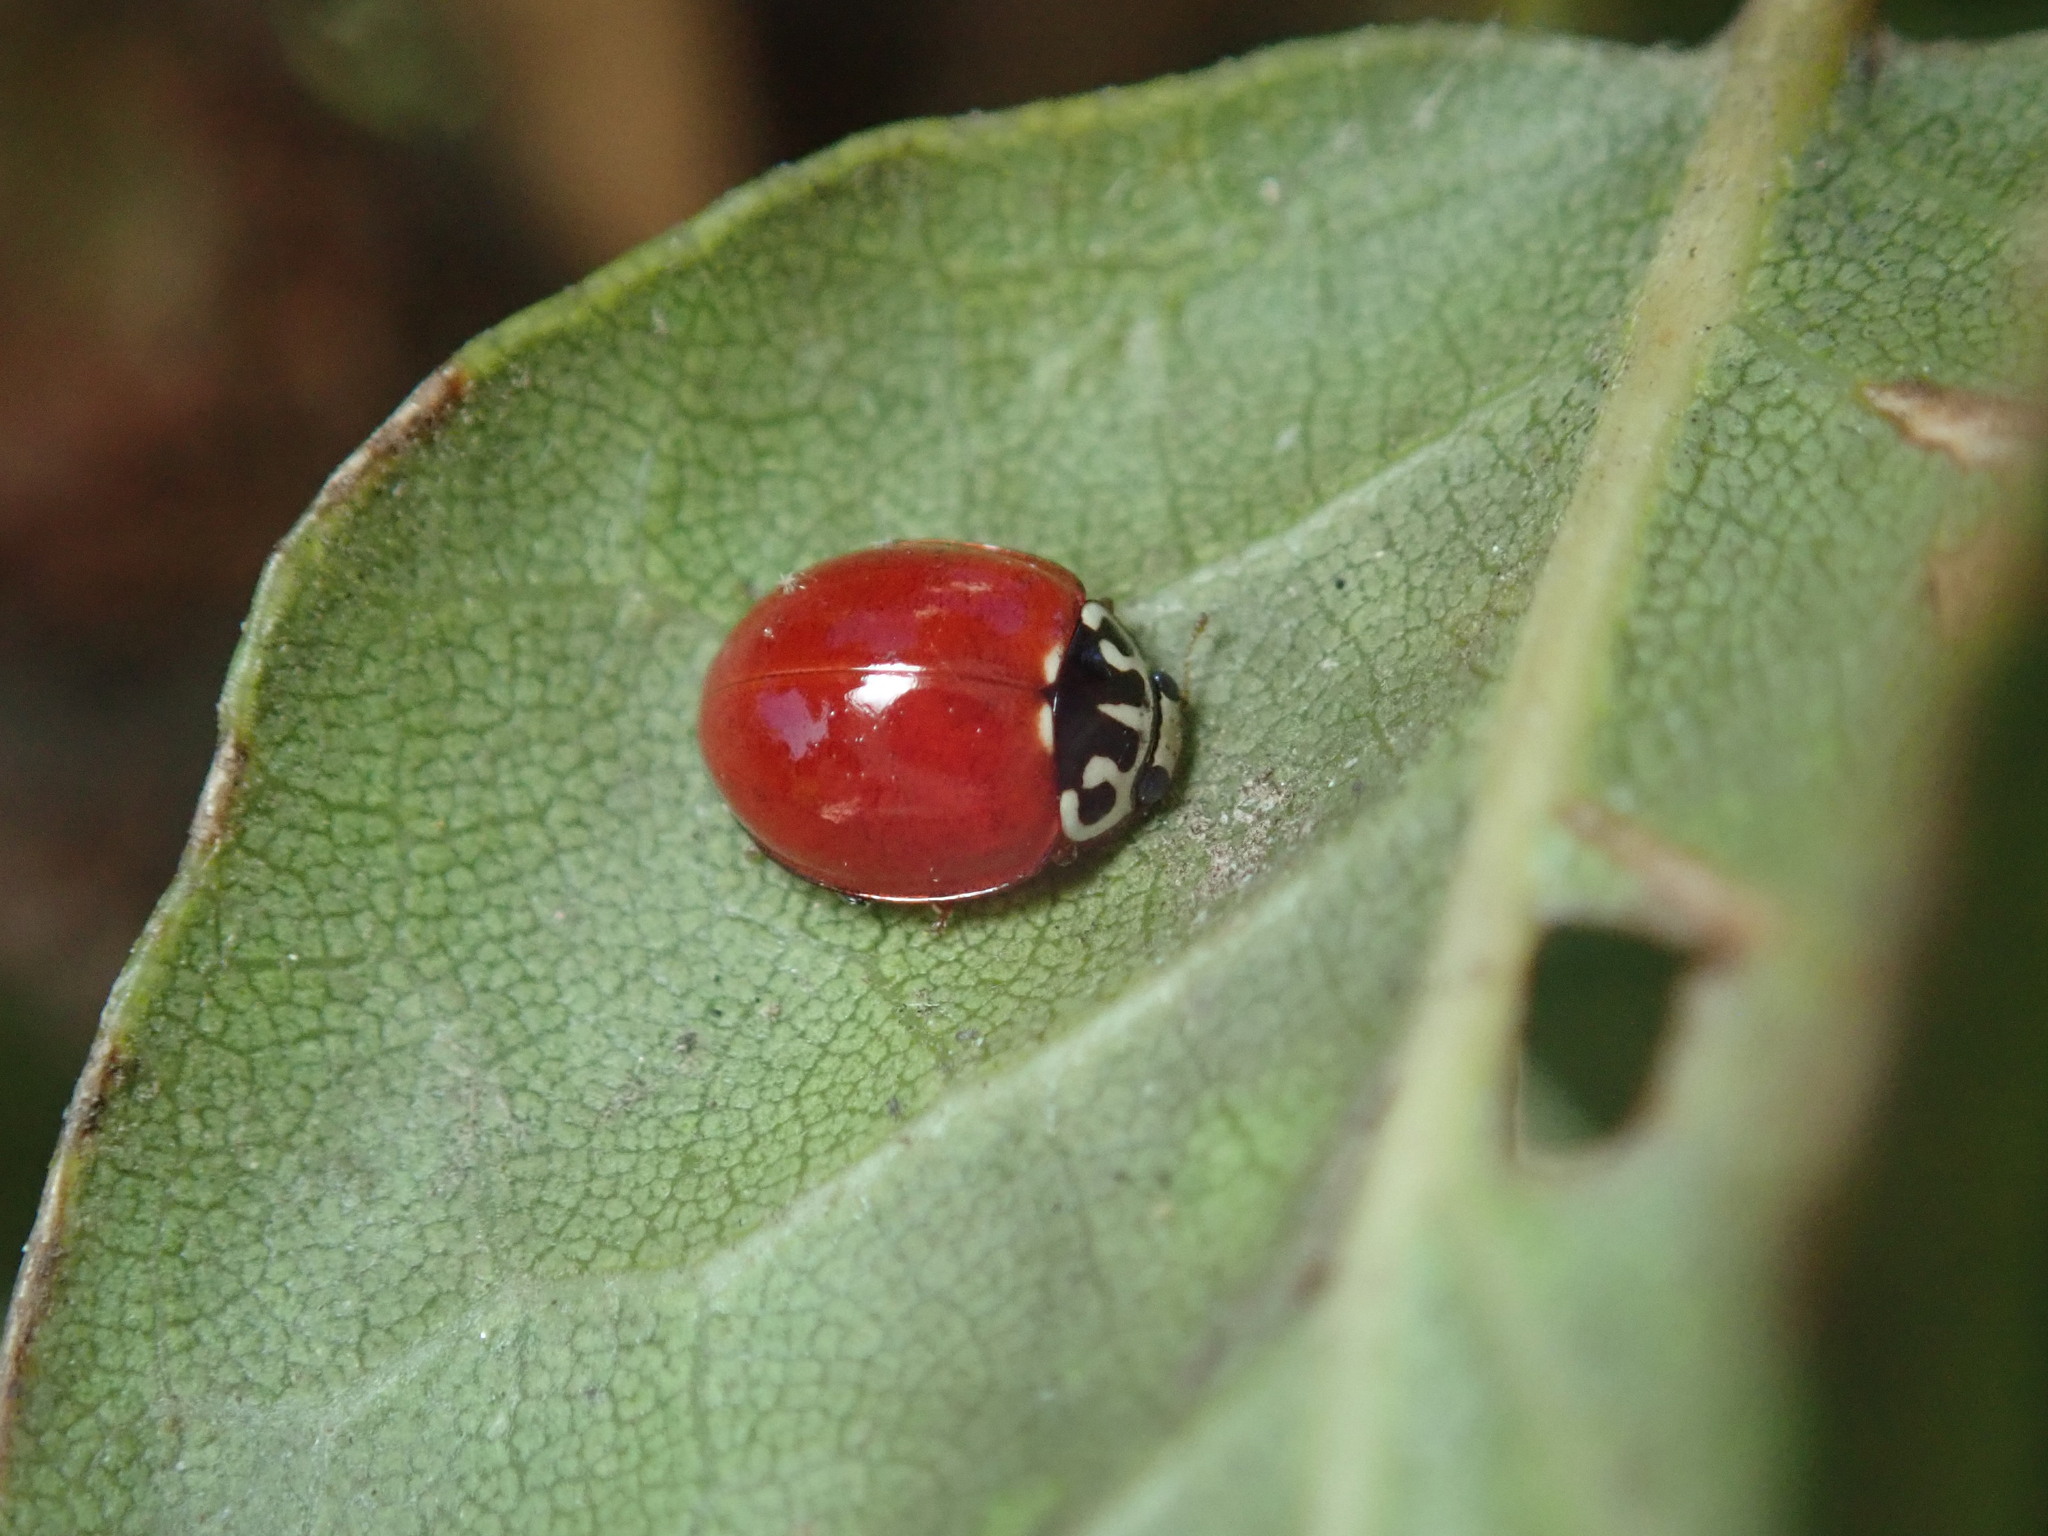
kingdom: Animalia
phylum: Arthropoda
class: Insecta
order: Coleoptera
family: Coccinellidae
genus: Cycloneda
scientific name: Cycloneda polita
